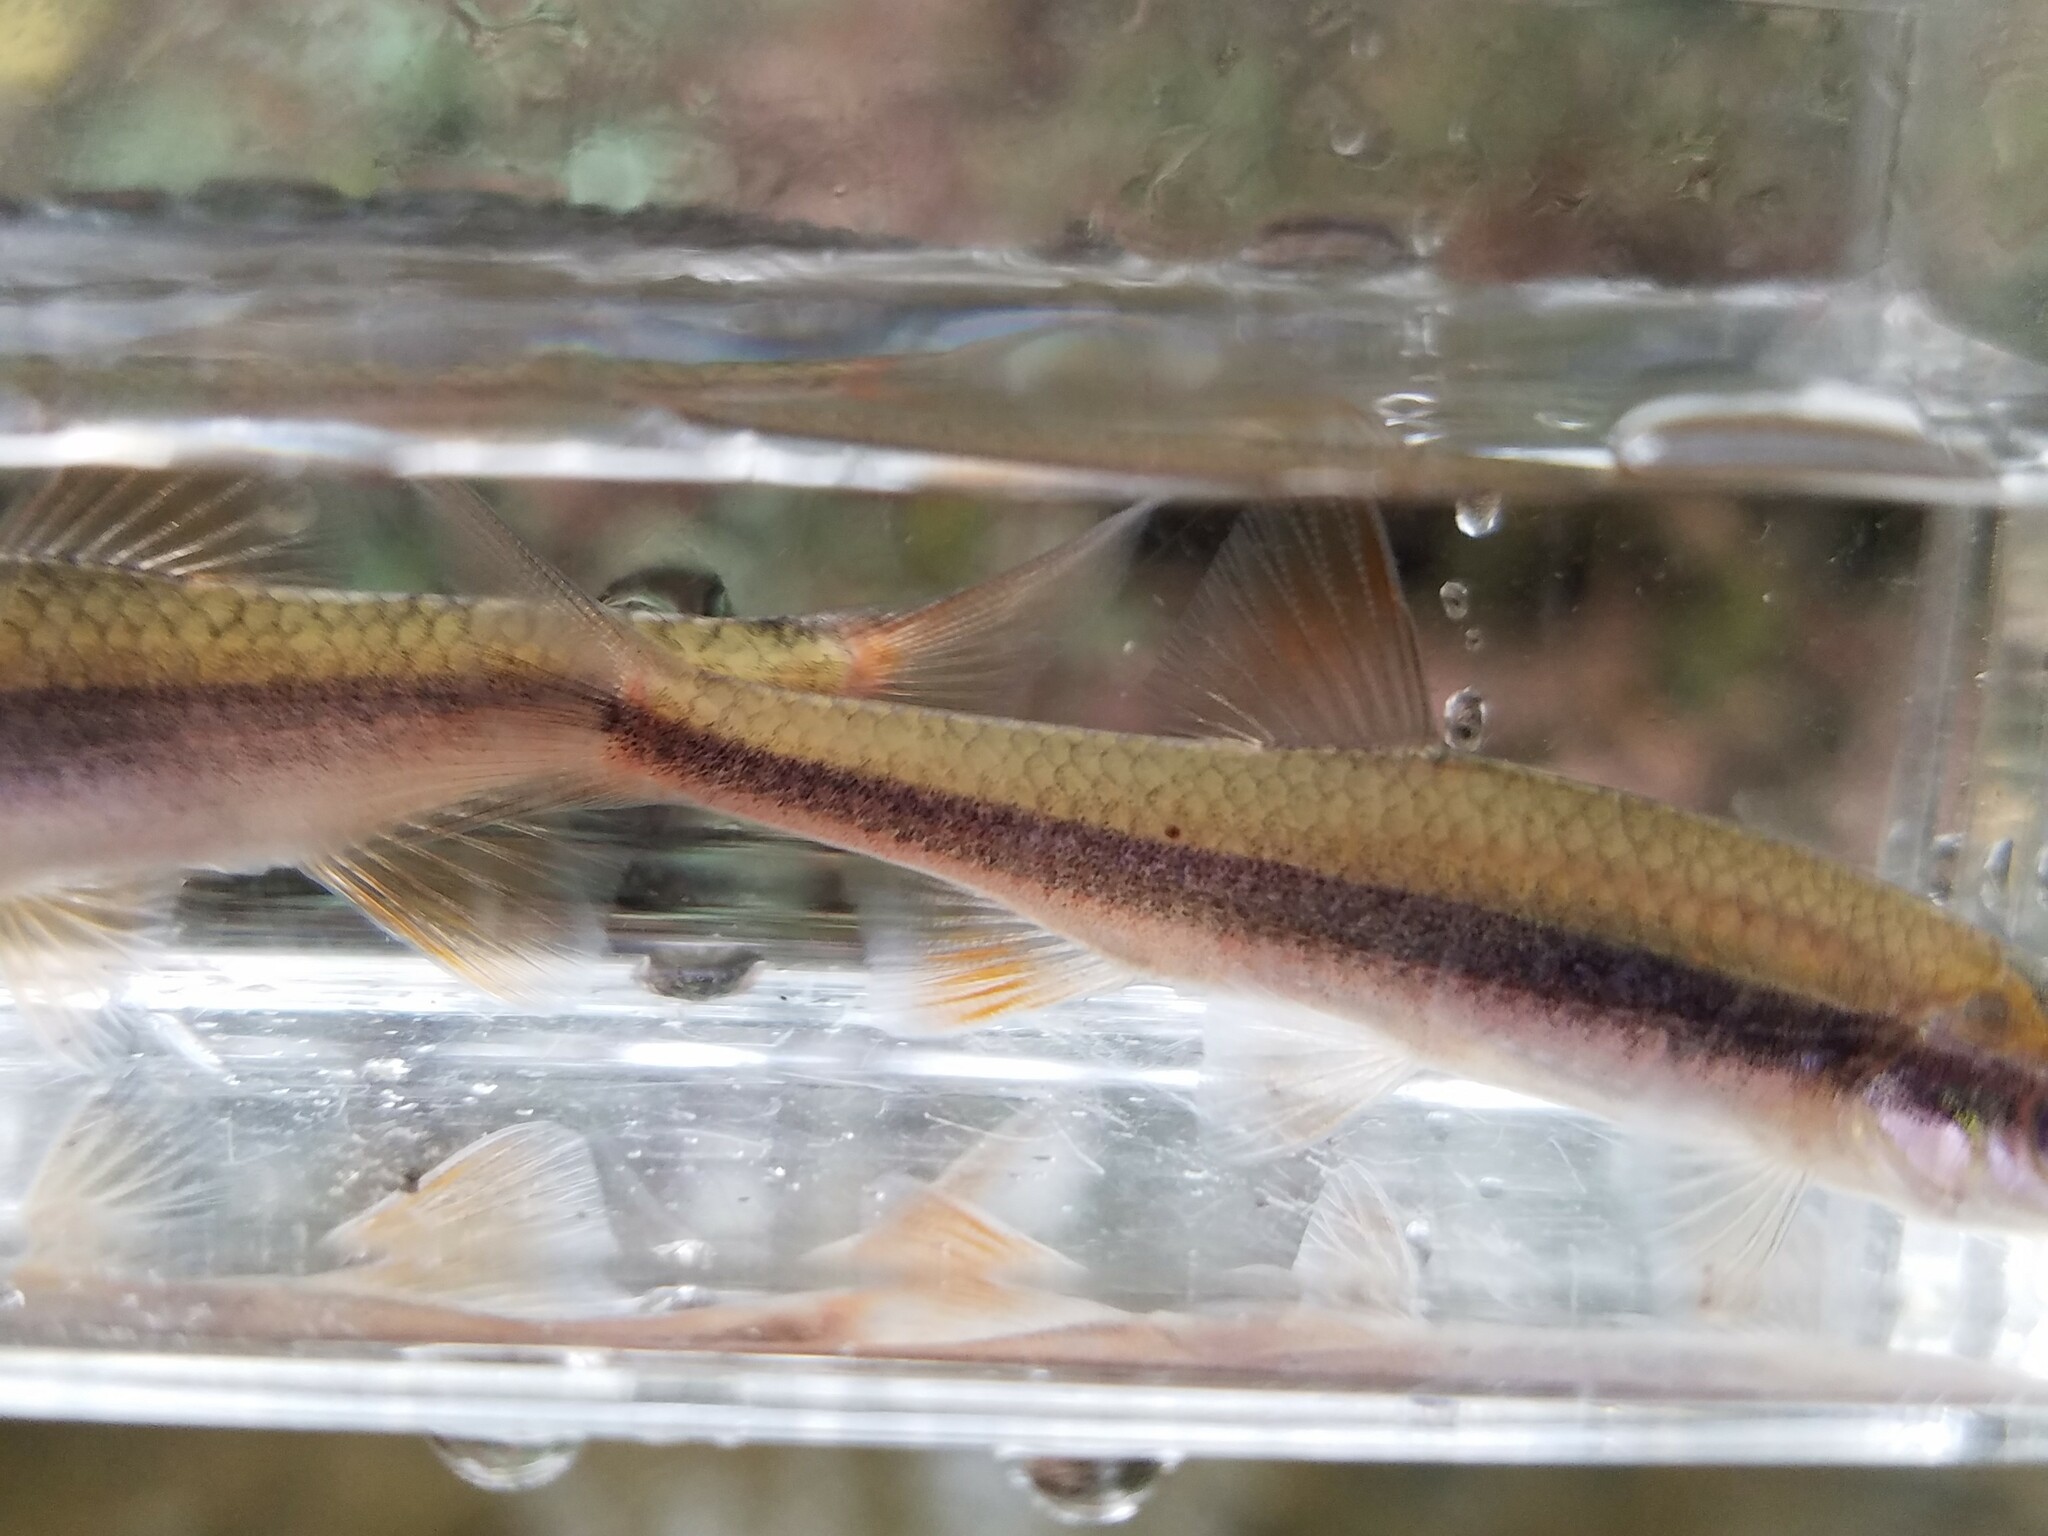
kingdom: Animalia
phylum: Chordata
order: Cypriniformes
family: Cyprinidae
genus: Clinostomus
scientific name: Clinostomus funduloides
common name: Rosyside dace
